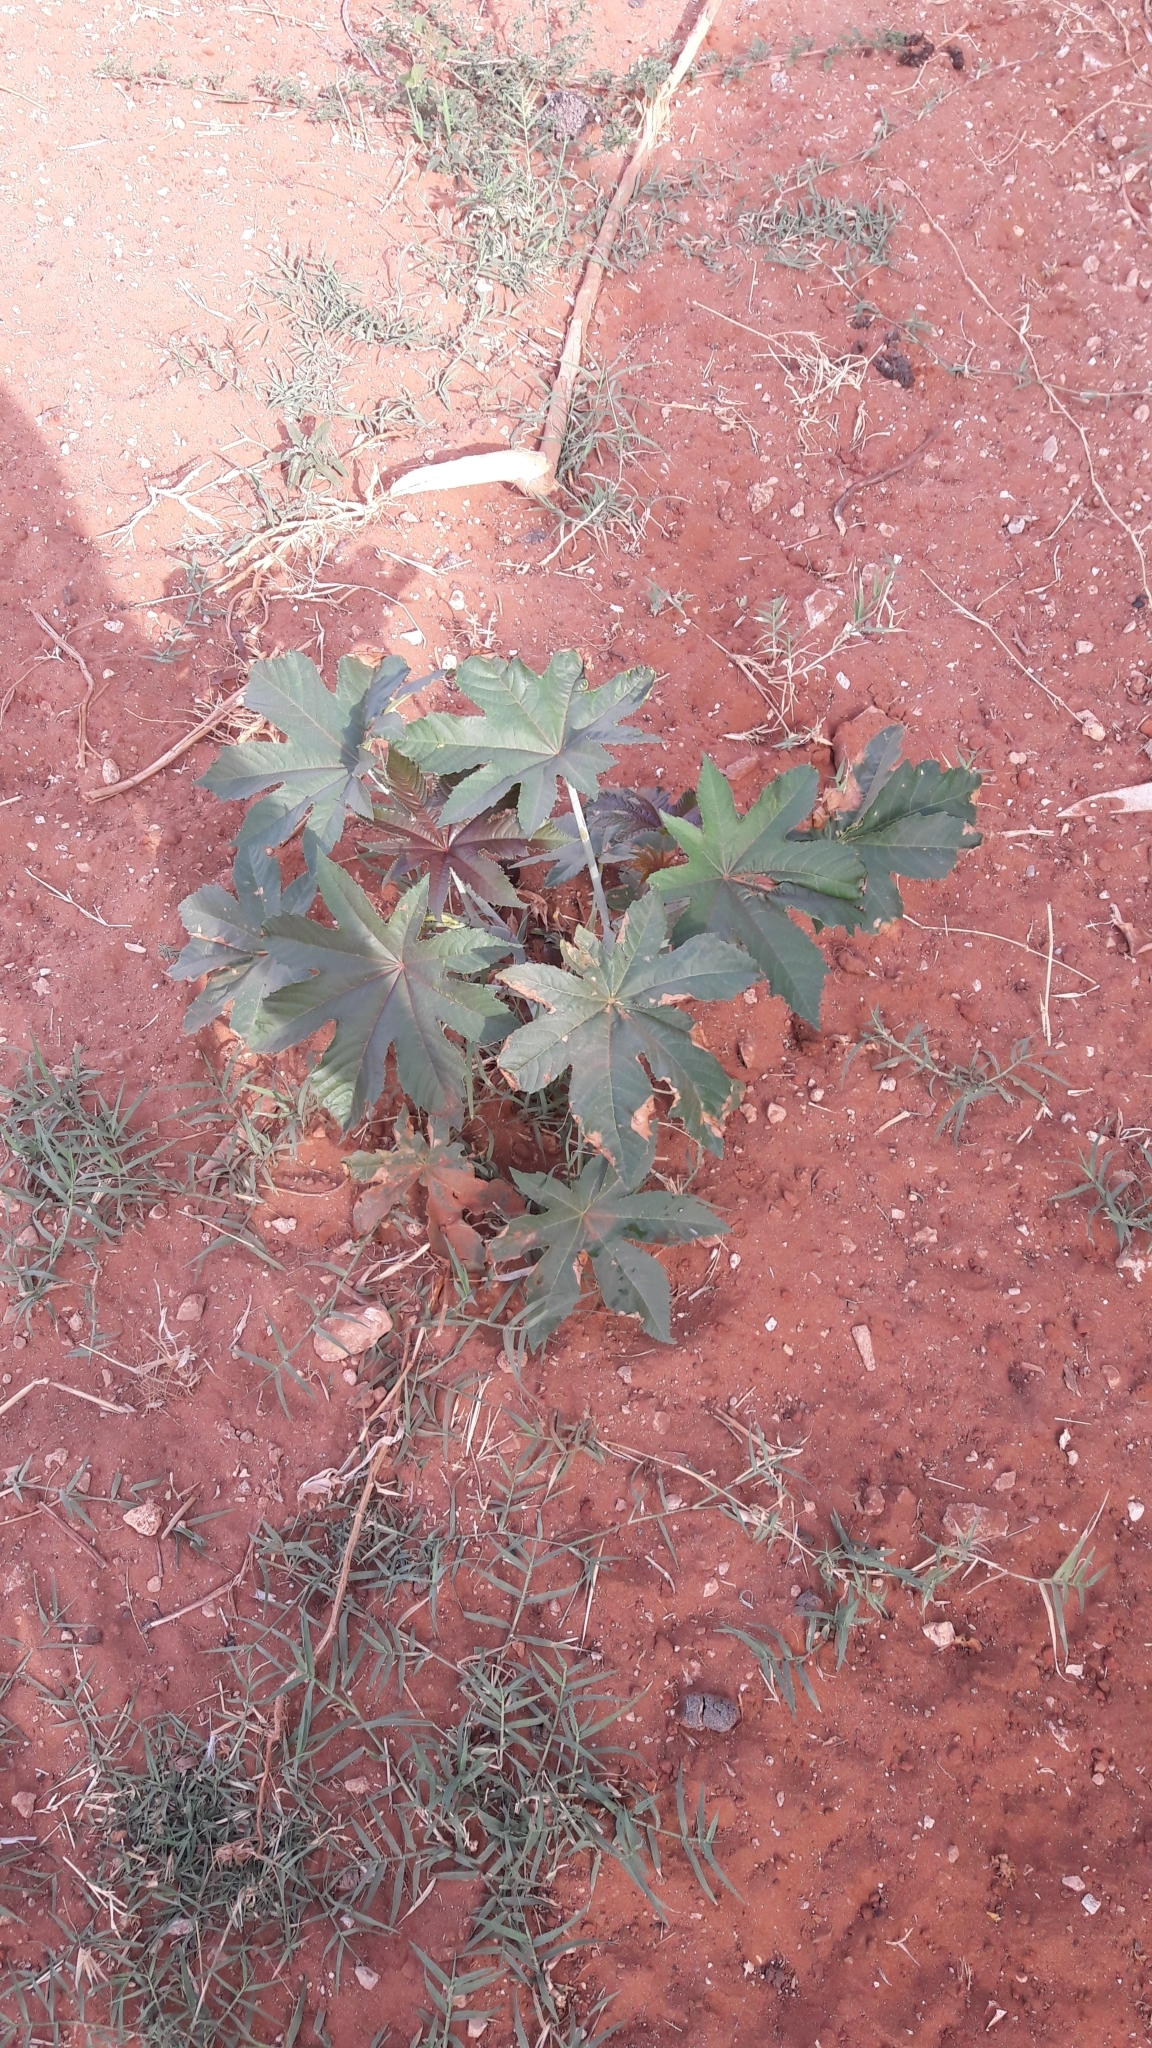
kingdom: Plantae
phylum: Tracheophyta
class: Magnoliopsida
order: Malpighiales
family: Euphorbiaceae
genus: Ricinus
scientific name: Ricinus communis
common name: Castor-oil-plant
